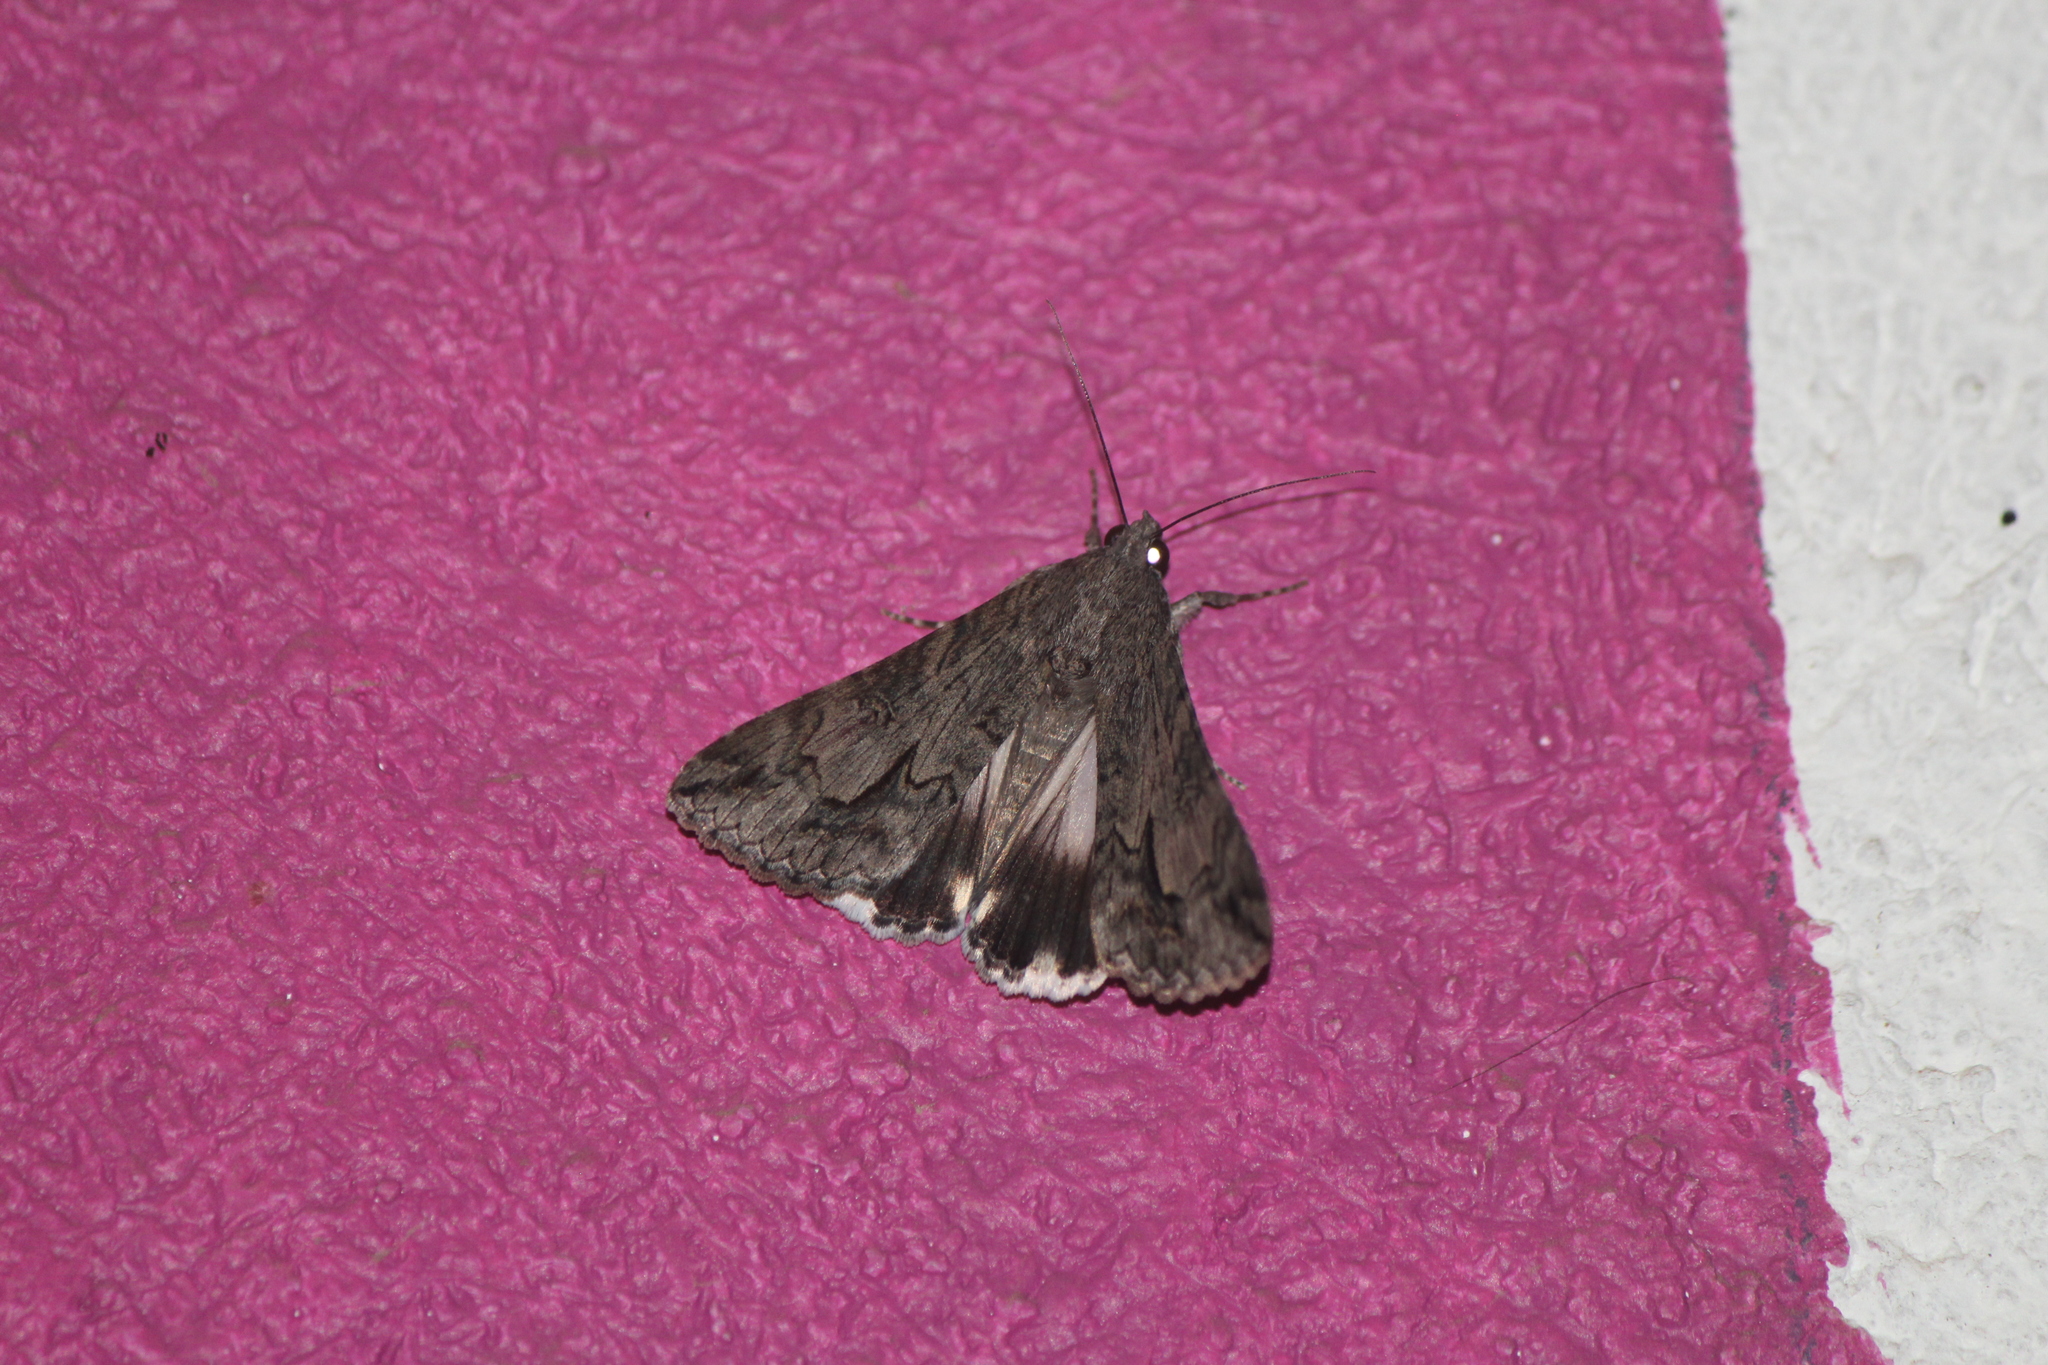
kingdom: Animalia
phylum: Arthropoda
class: Insecta
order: Lepidoptera
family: Erebidae
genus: Melipotis
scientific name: Melipotis jucunda
